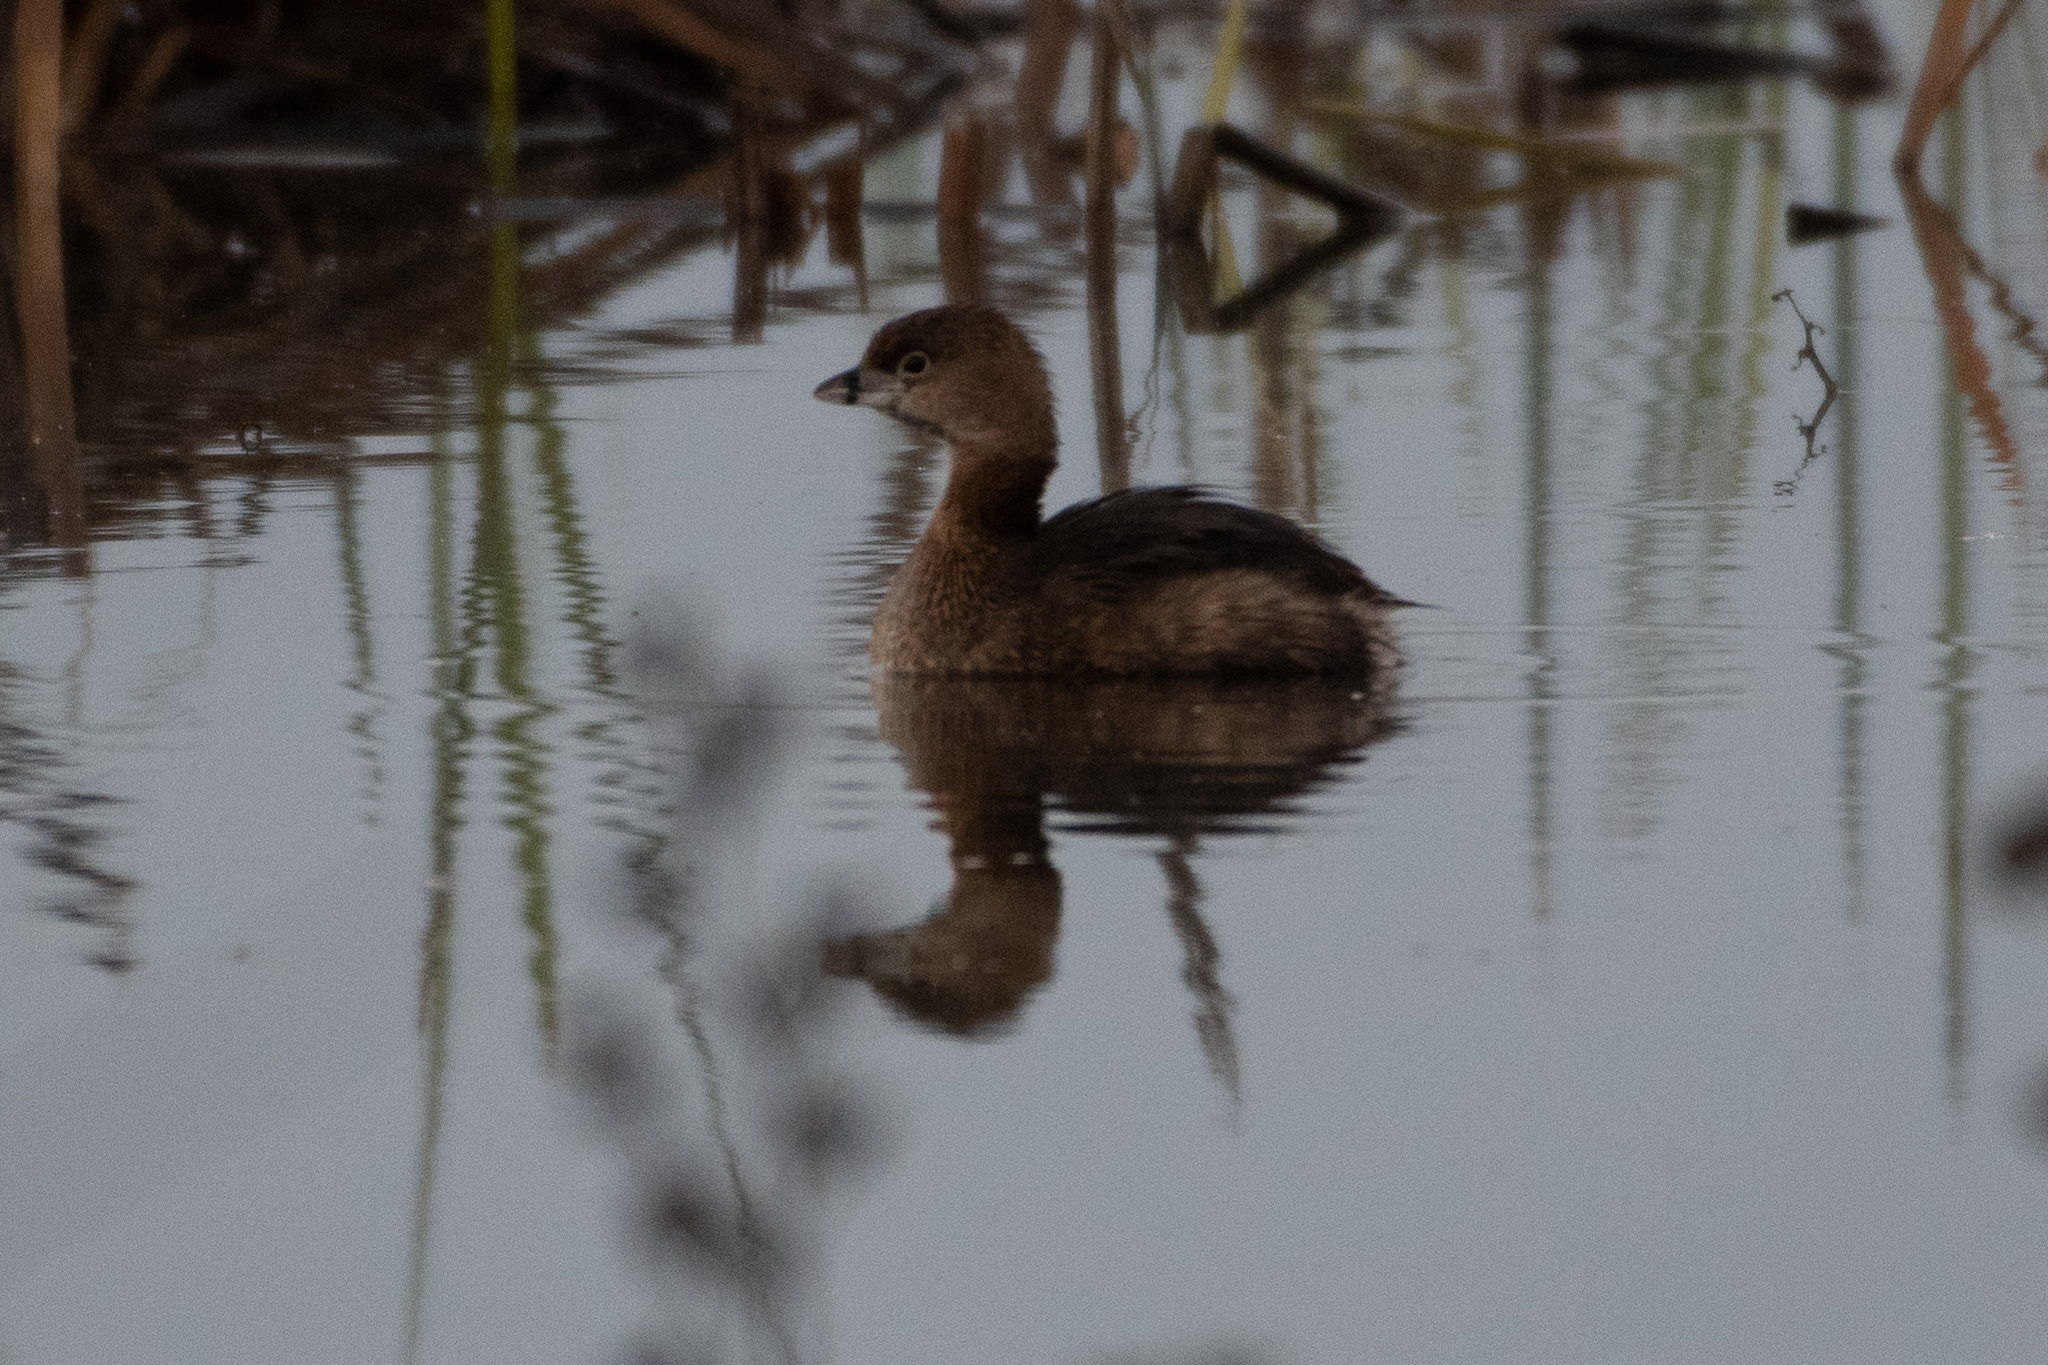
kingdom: Animalia
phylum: Chordata
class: Aves
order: Podicipediformes
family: Podicipedidae
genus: Podilymbus
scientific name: Podilymbus podiceps
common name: Pied-billed grebe
